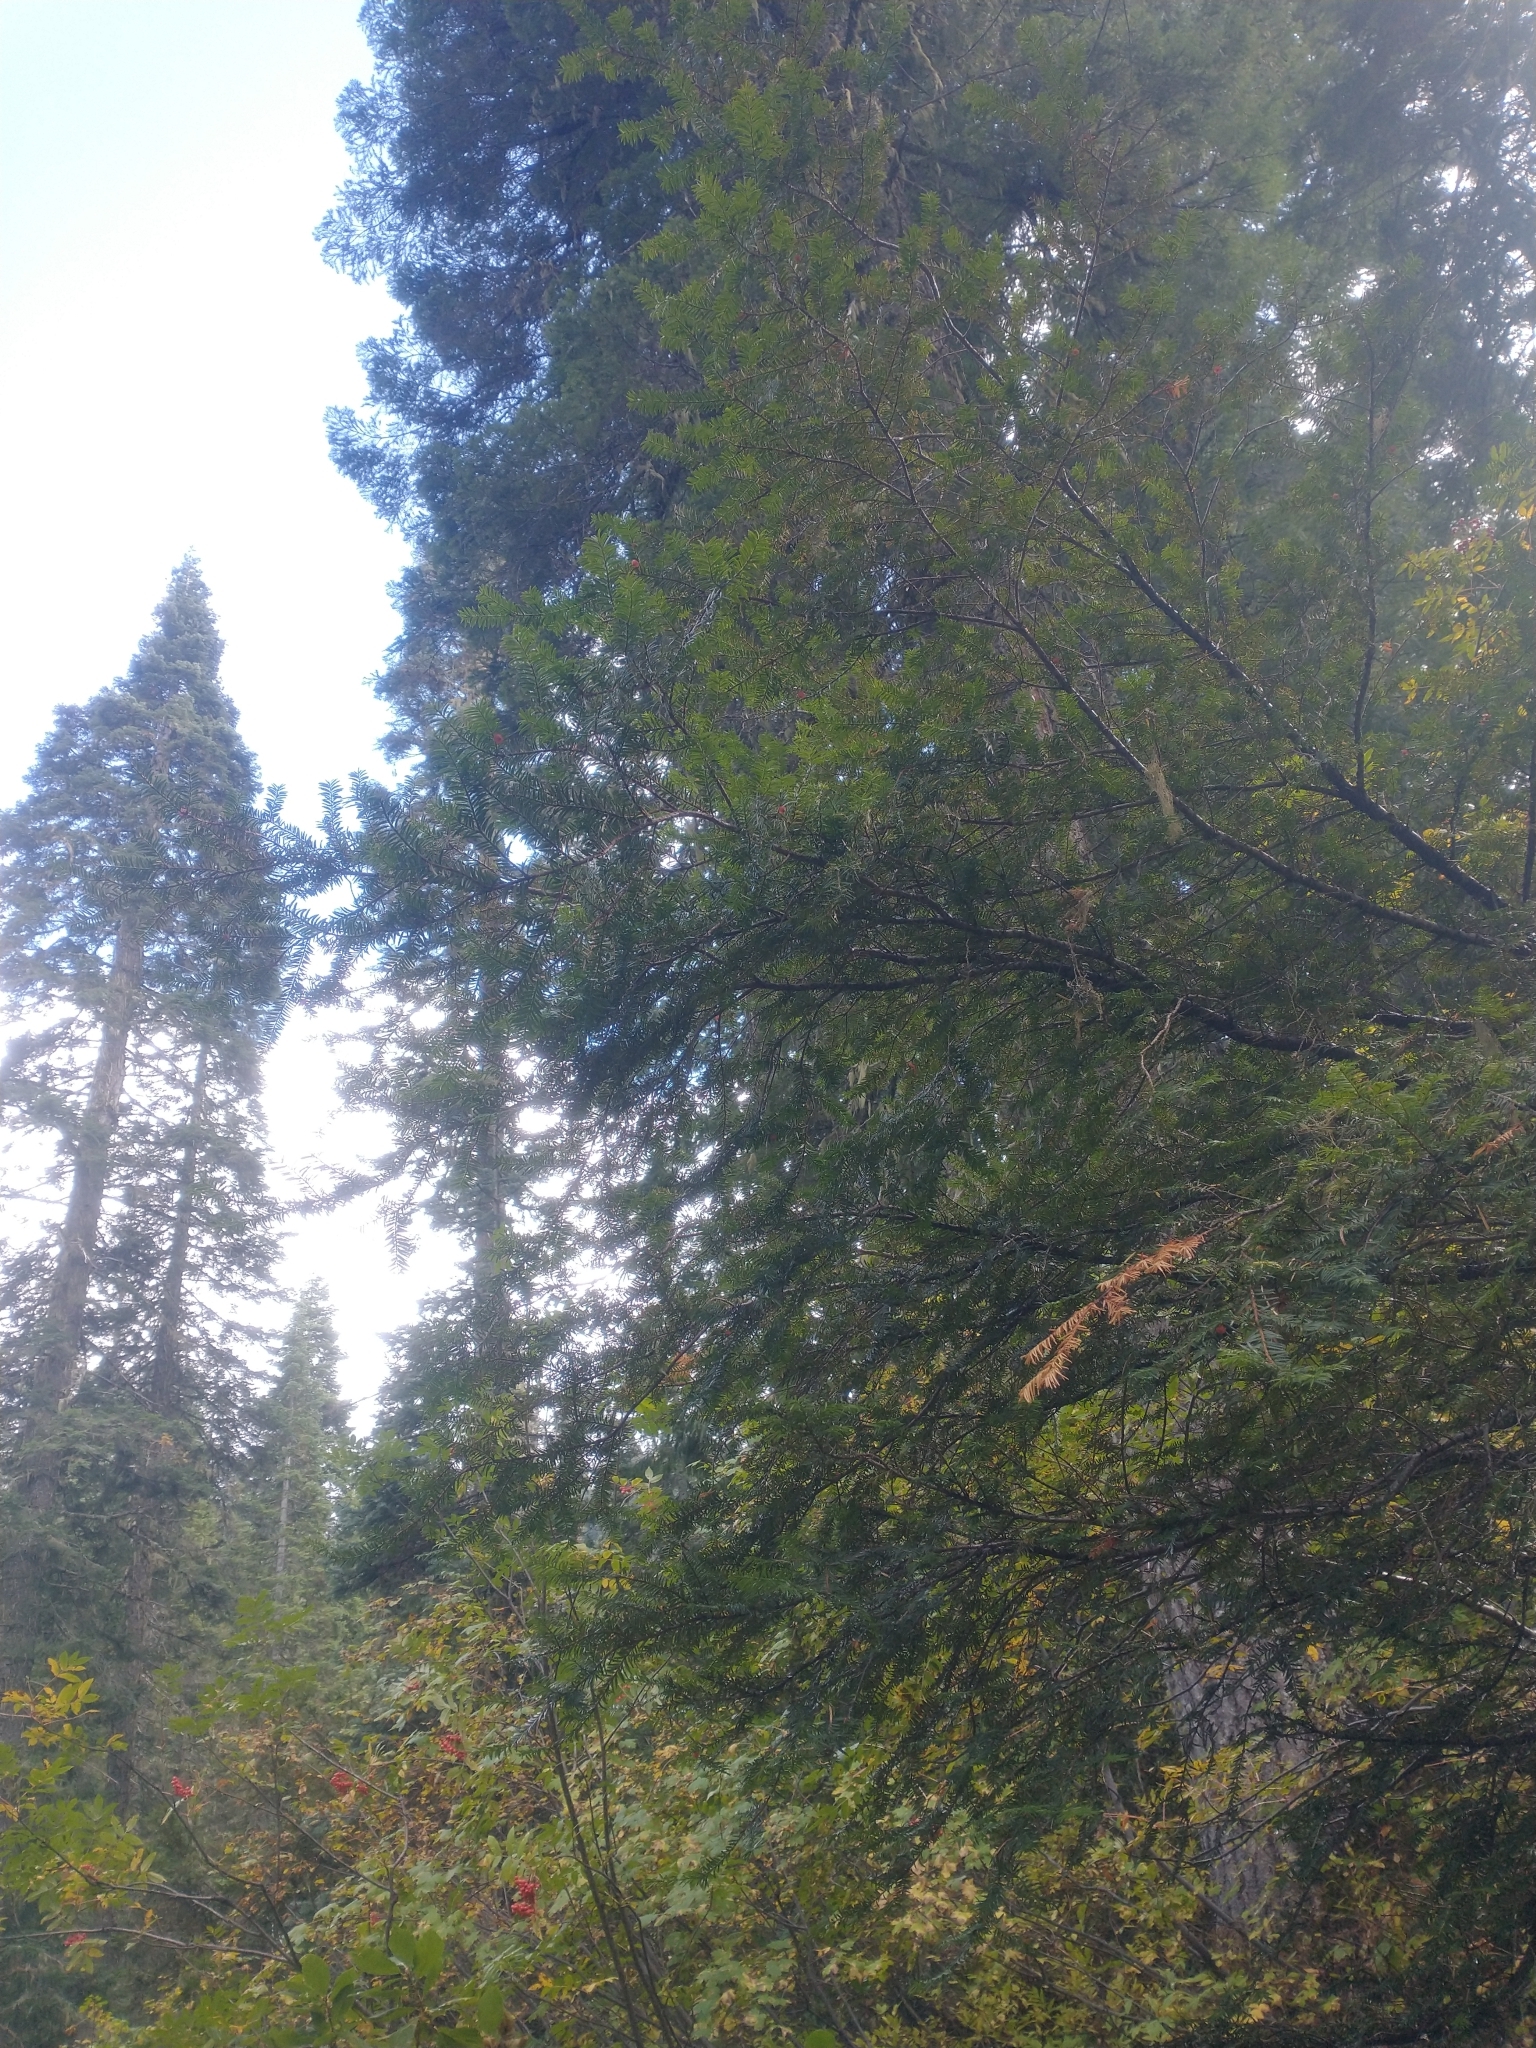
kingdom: Plantae
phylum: Tracheophyta
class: Pinopsida
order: Pinales
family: Taxaceae
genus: Taxus
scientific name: Taxus brevifolia
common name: Pacific yew
